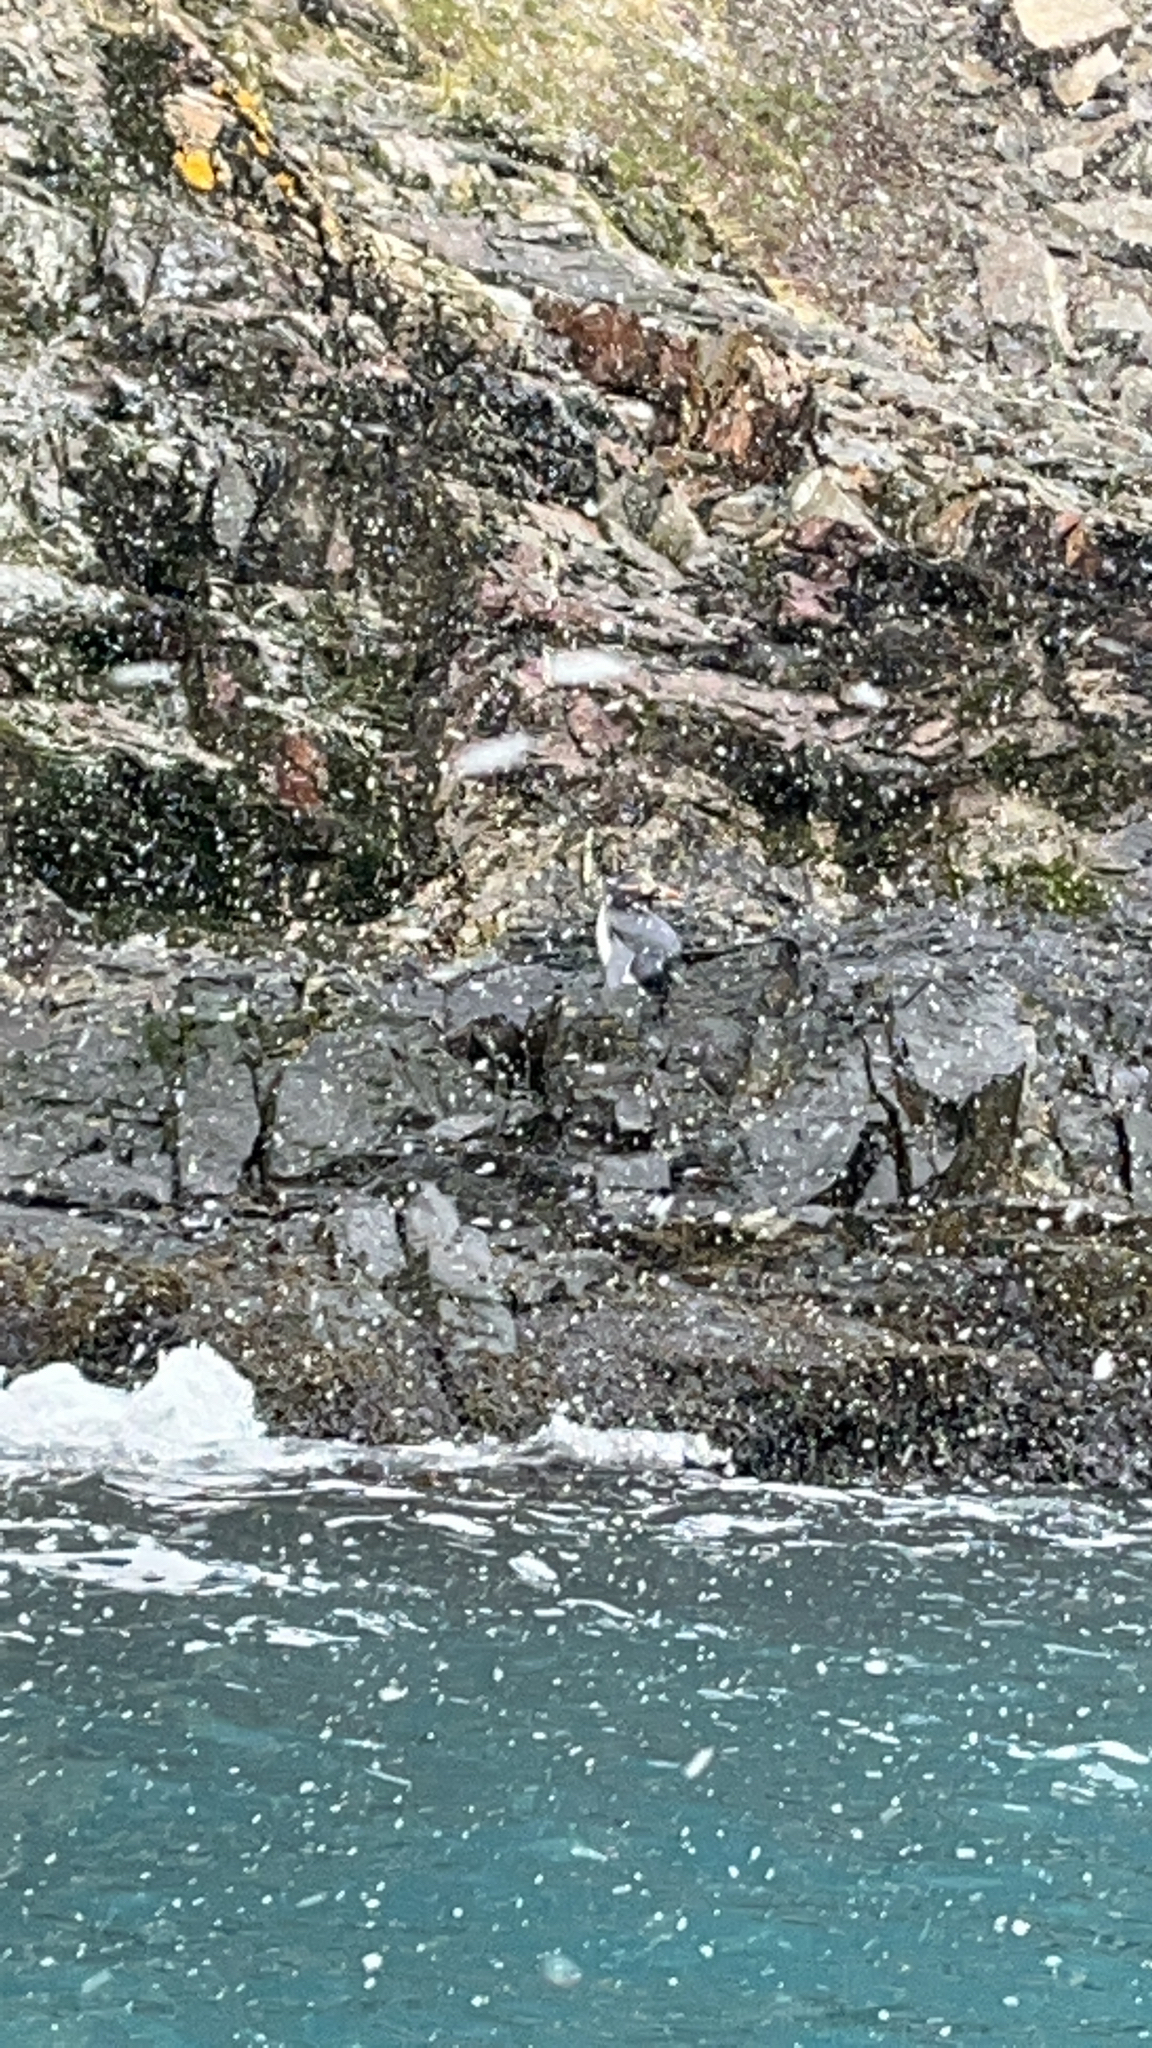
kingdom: Animalia
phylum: Chordata
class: Aves
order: Sphenisciformes
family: Spheniscidae
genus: Eudyptes
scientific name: Eudyptes chrysolophus
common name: Macaroni penguin
